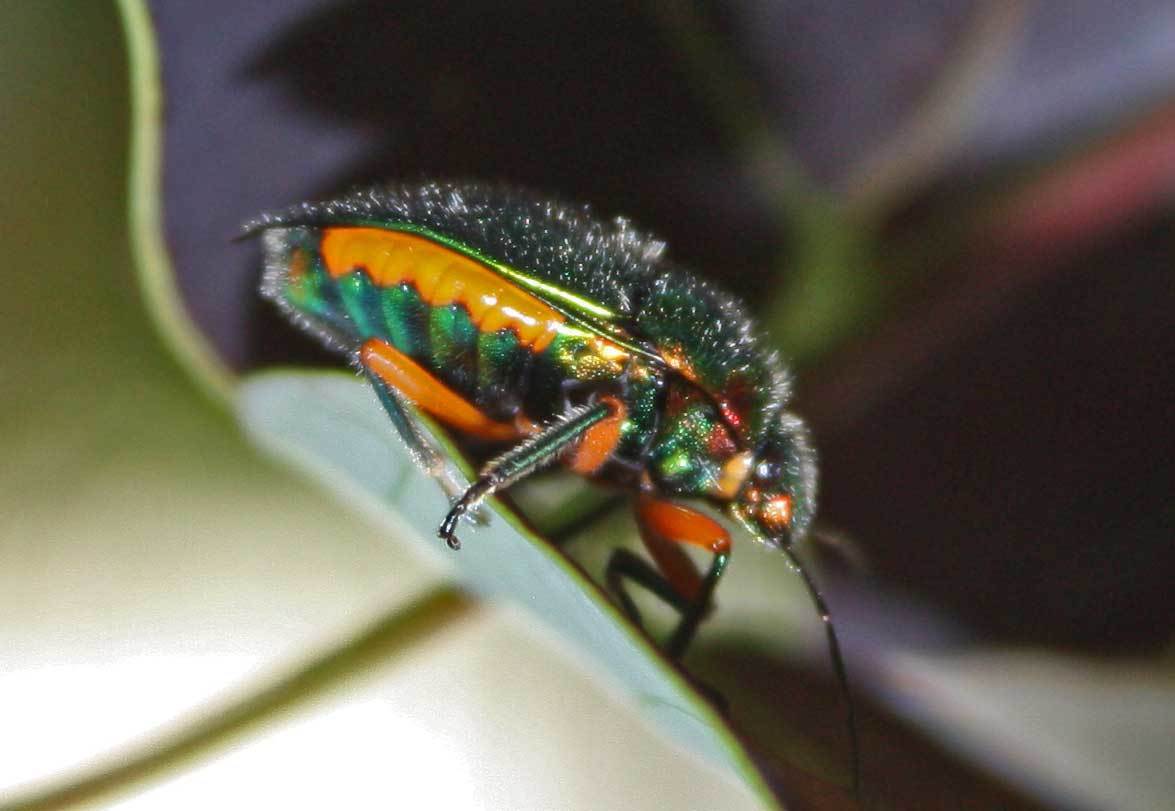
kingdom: Animalia
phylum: Arthropoda
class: Insecta
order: Hemiptera
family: Scutelleridae
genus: Lampromicra
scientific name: Lampromicra senator
